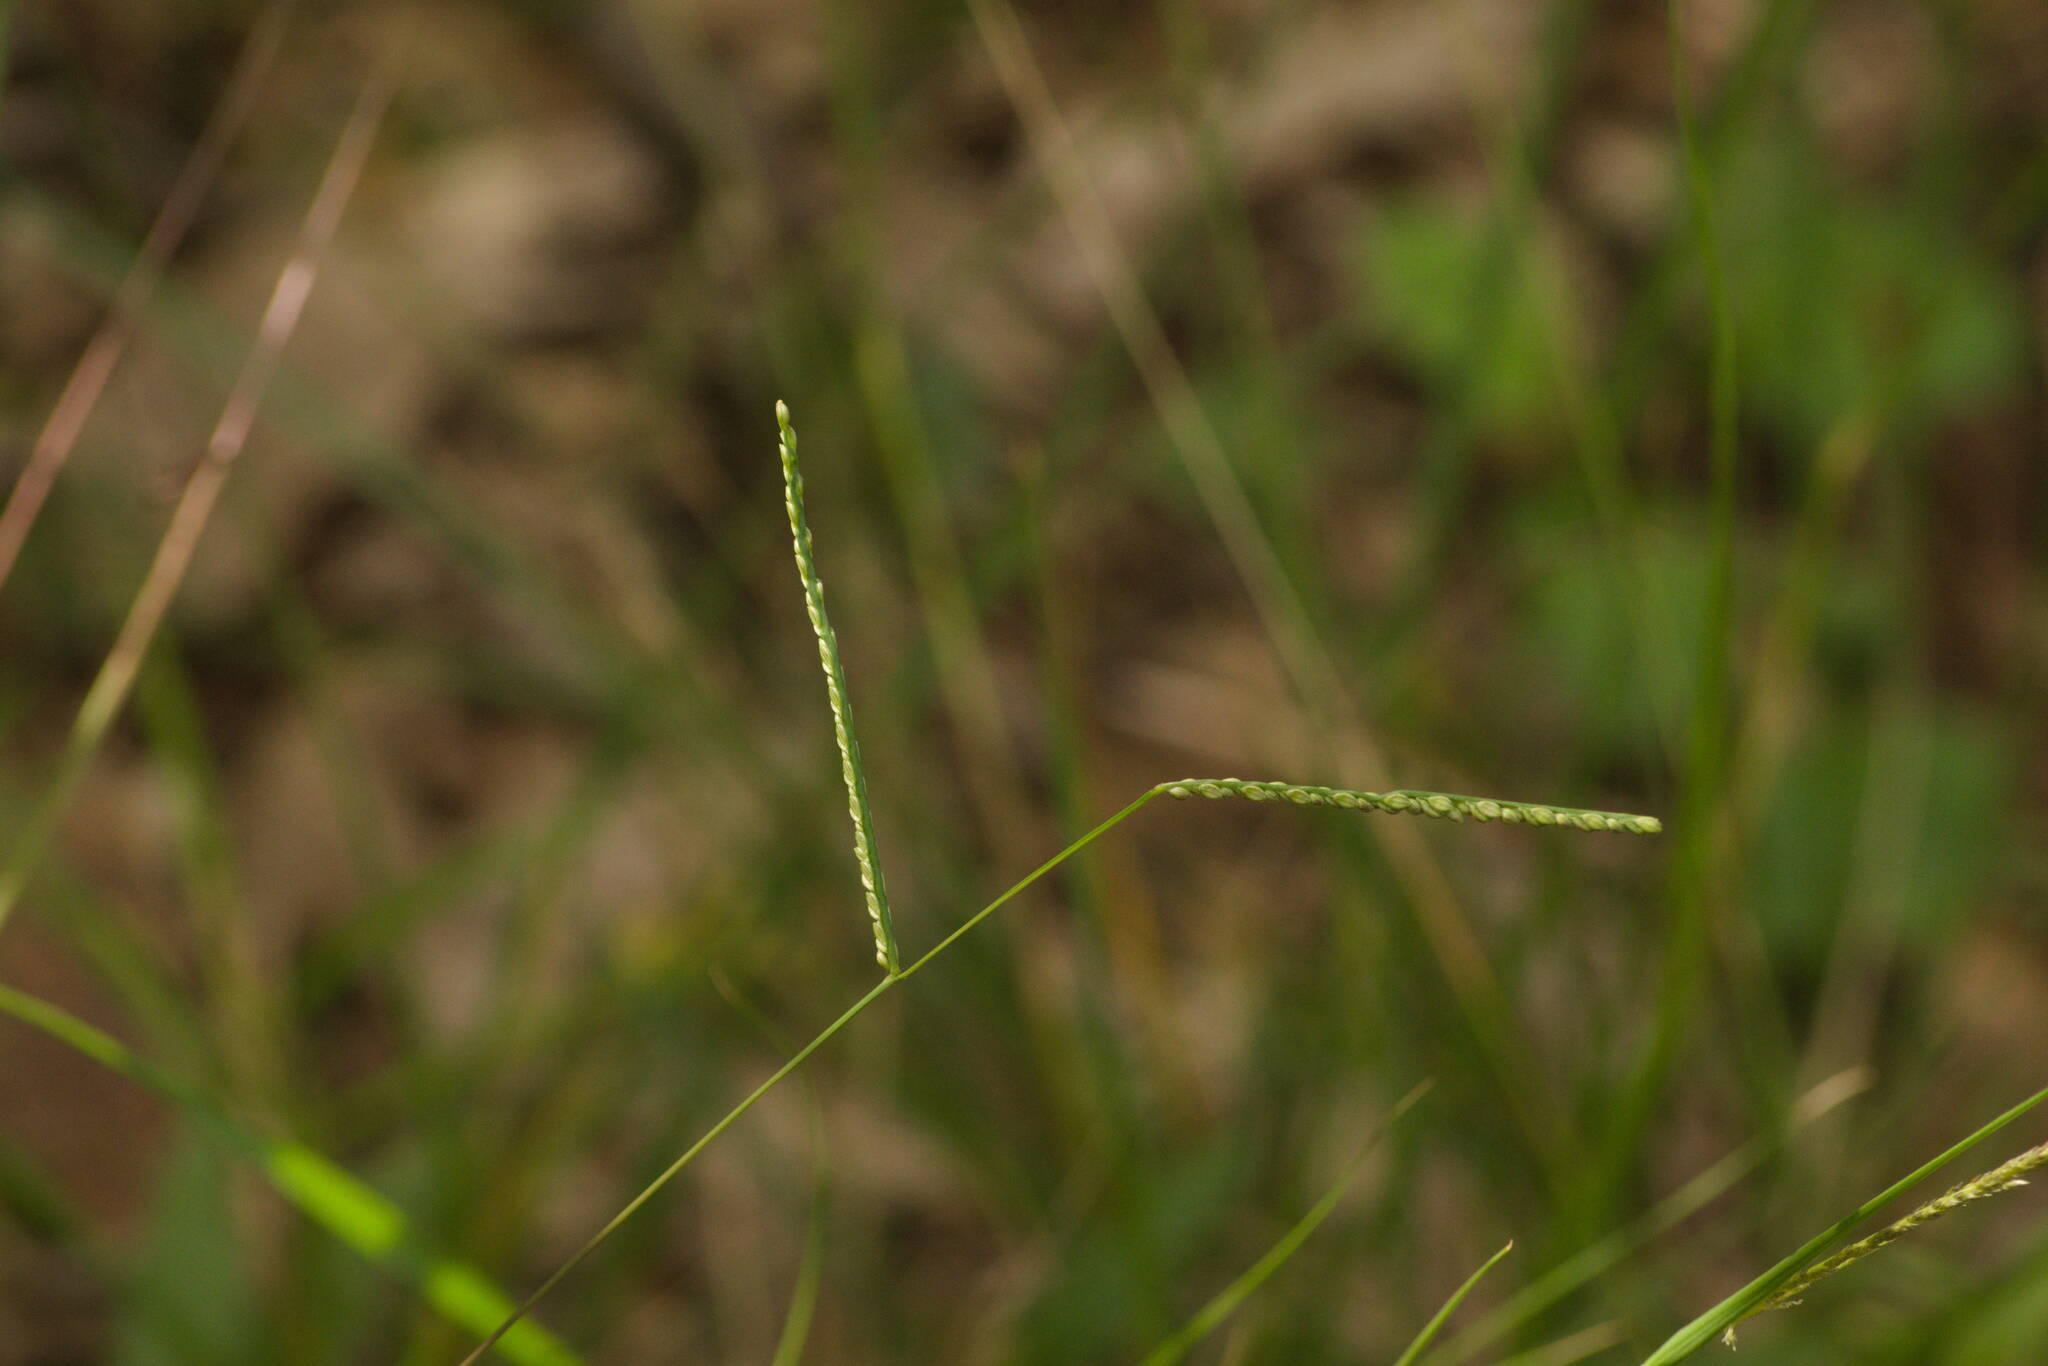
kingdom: Plantae
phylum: Tracheophyta
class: Liliopsida
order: Poales
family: Poaceae
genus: Paspalum
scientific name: Paspalum langei
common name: Rusty-seed paspalum
